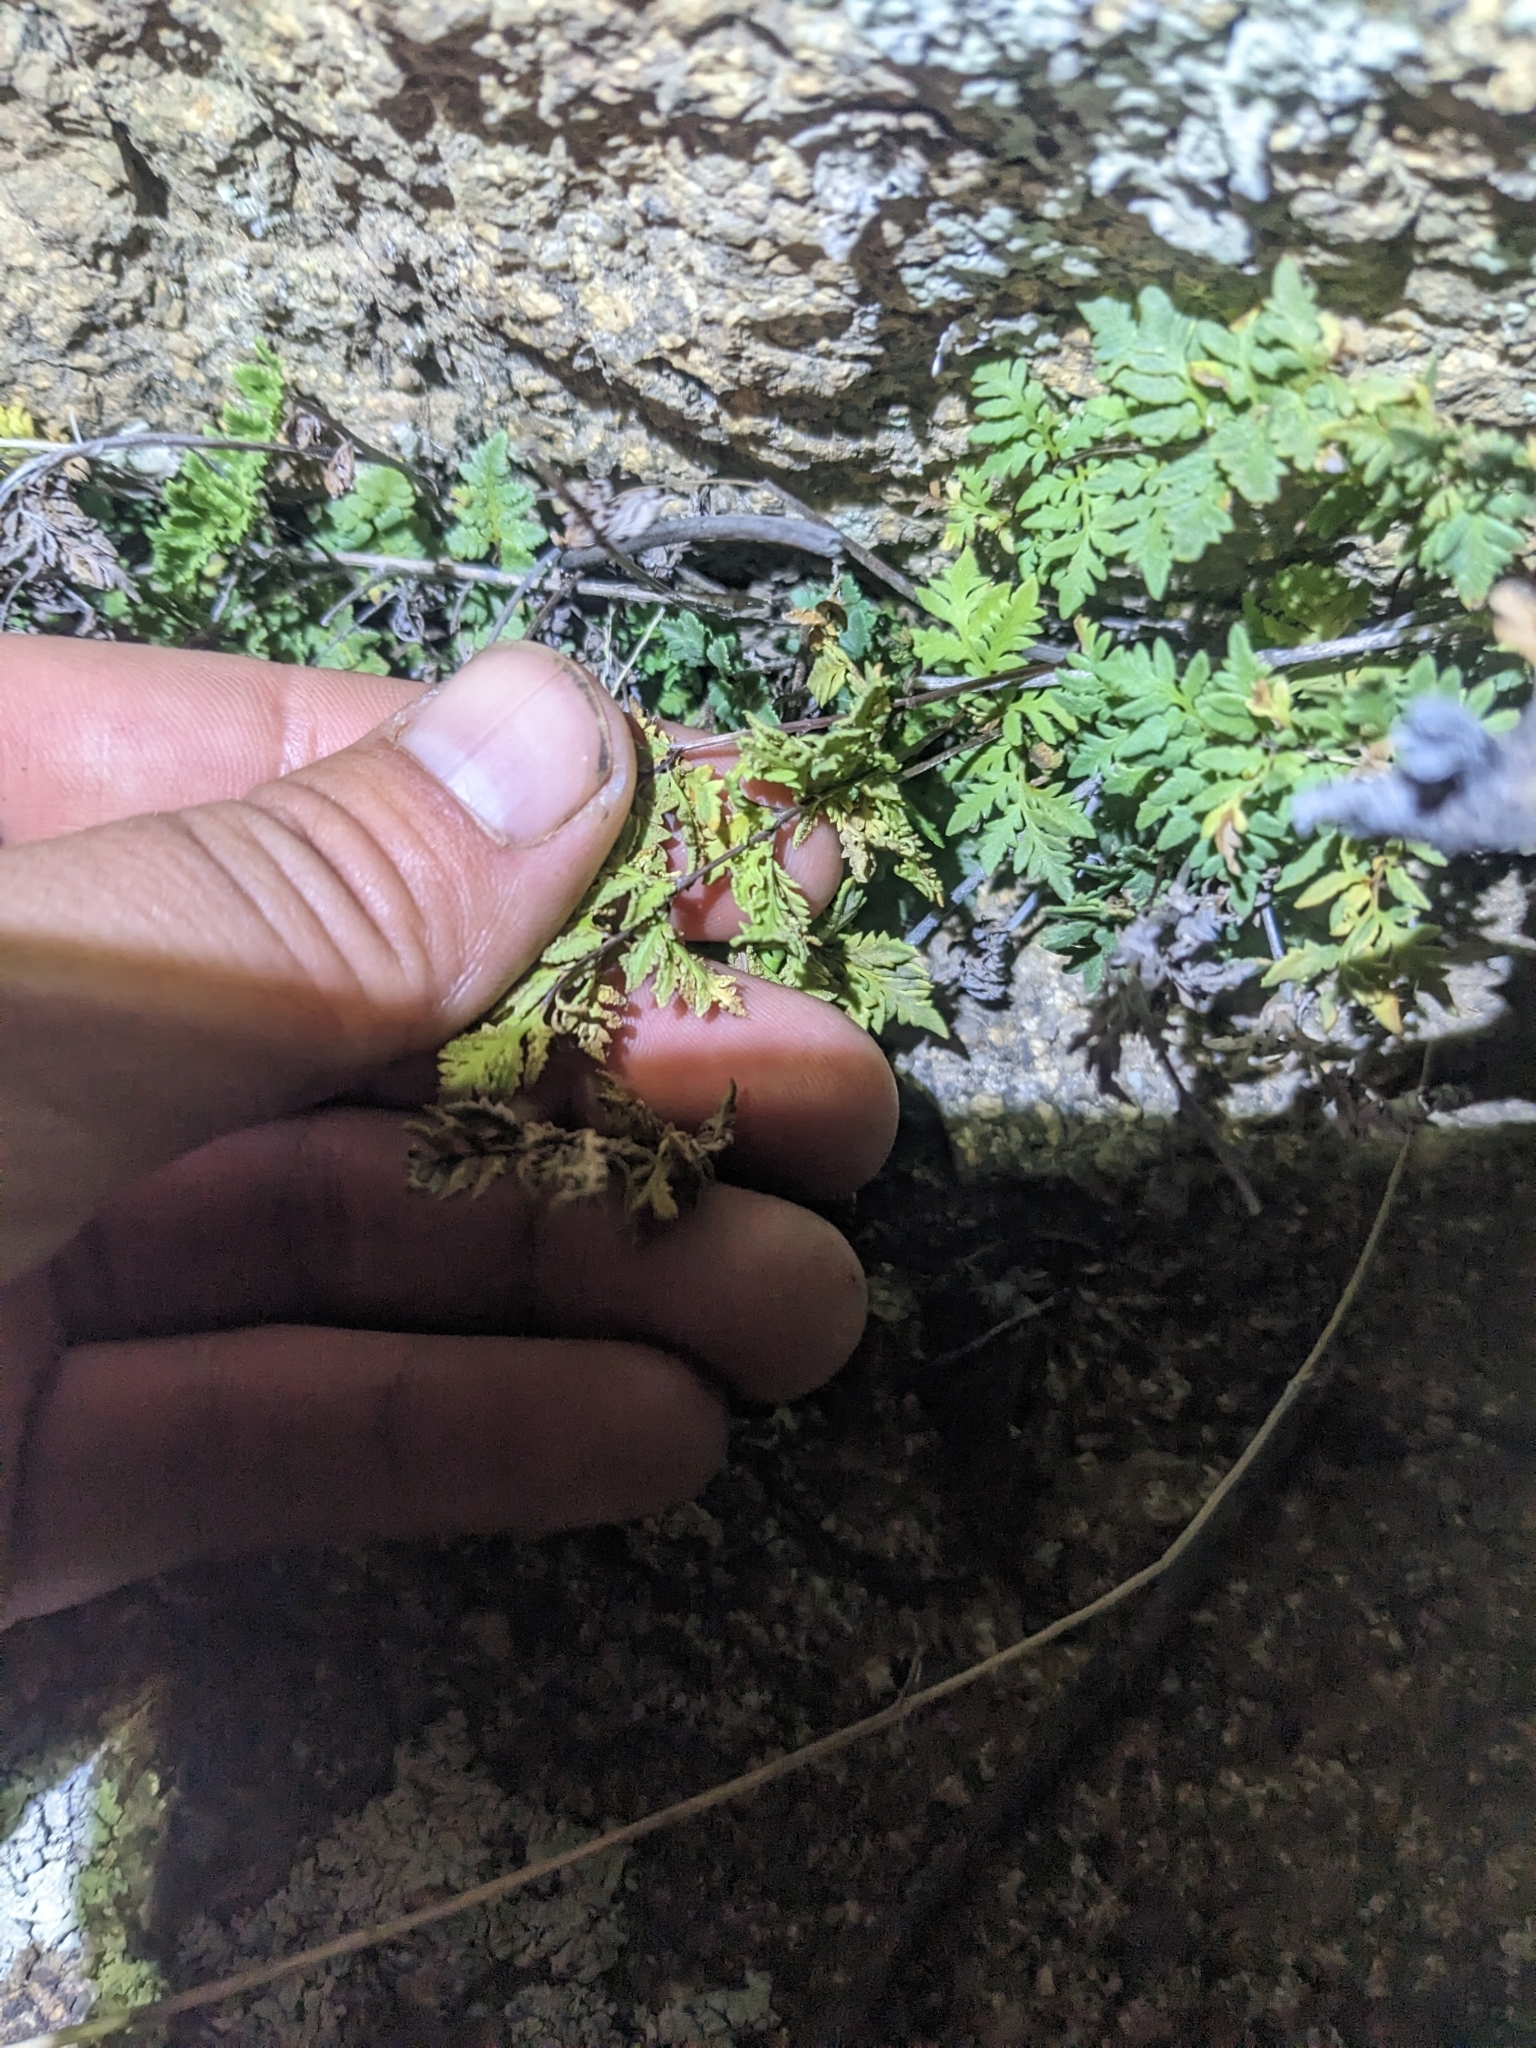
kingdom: Plantae
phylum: Tracheophyta
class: Polypodiopsida
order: Polypodiales
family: Pteridaceae
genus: Myriopteris
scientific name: Myriopteris wrightii
